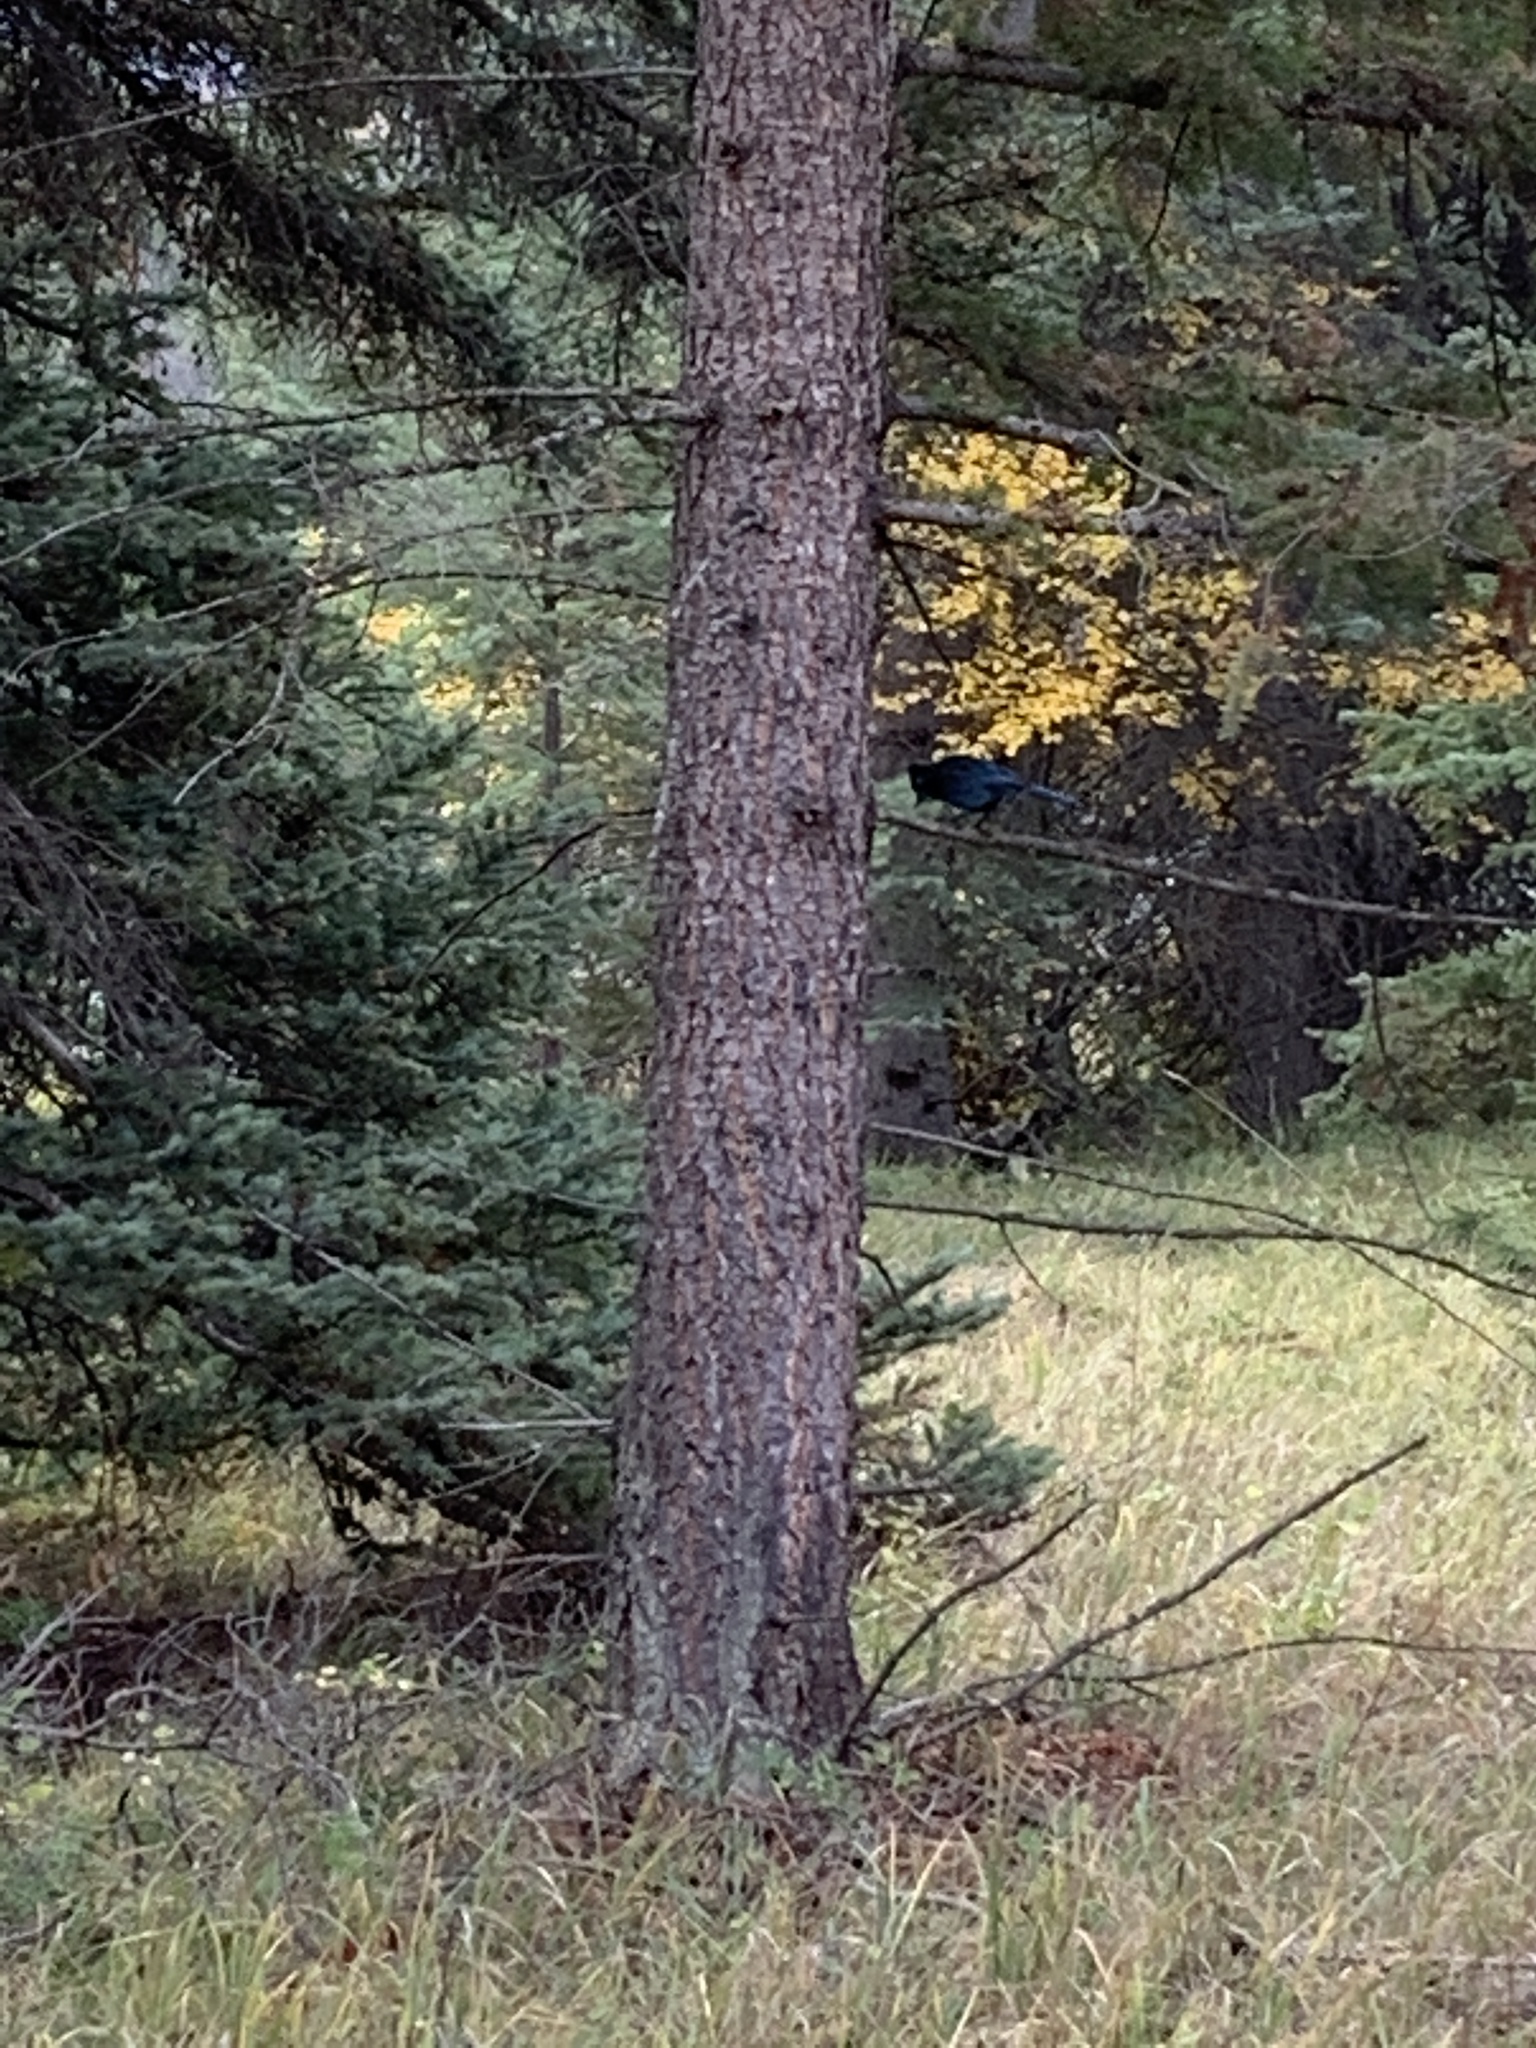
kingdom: Animalia
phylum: Chordata
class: Aves
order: Passeriformes
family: Corvidae
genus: Cyanocitta
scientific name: Cyanocitta stelleri
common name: Steller's jay
